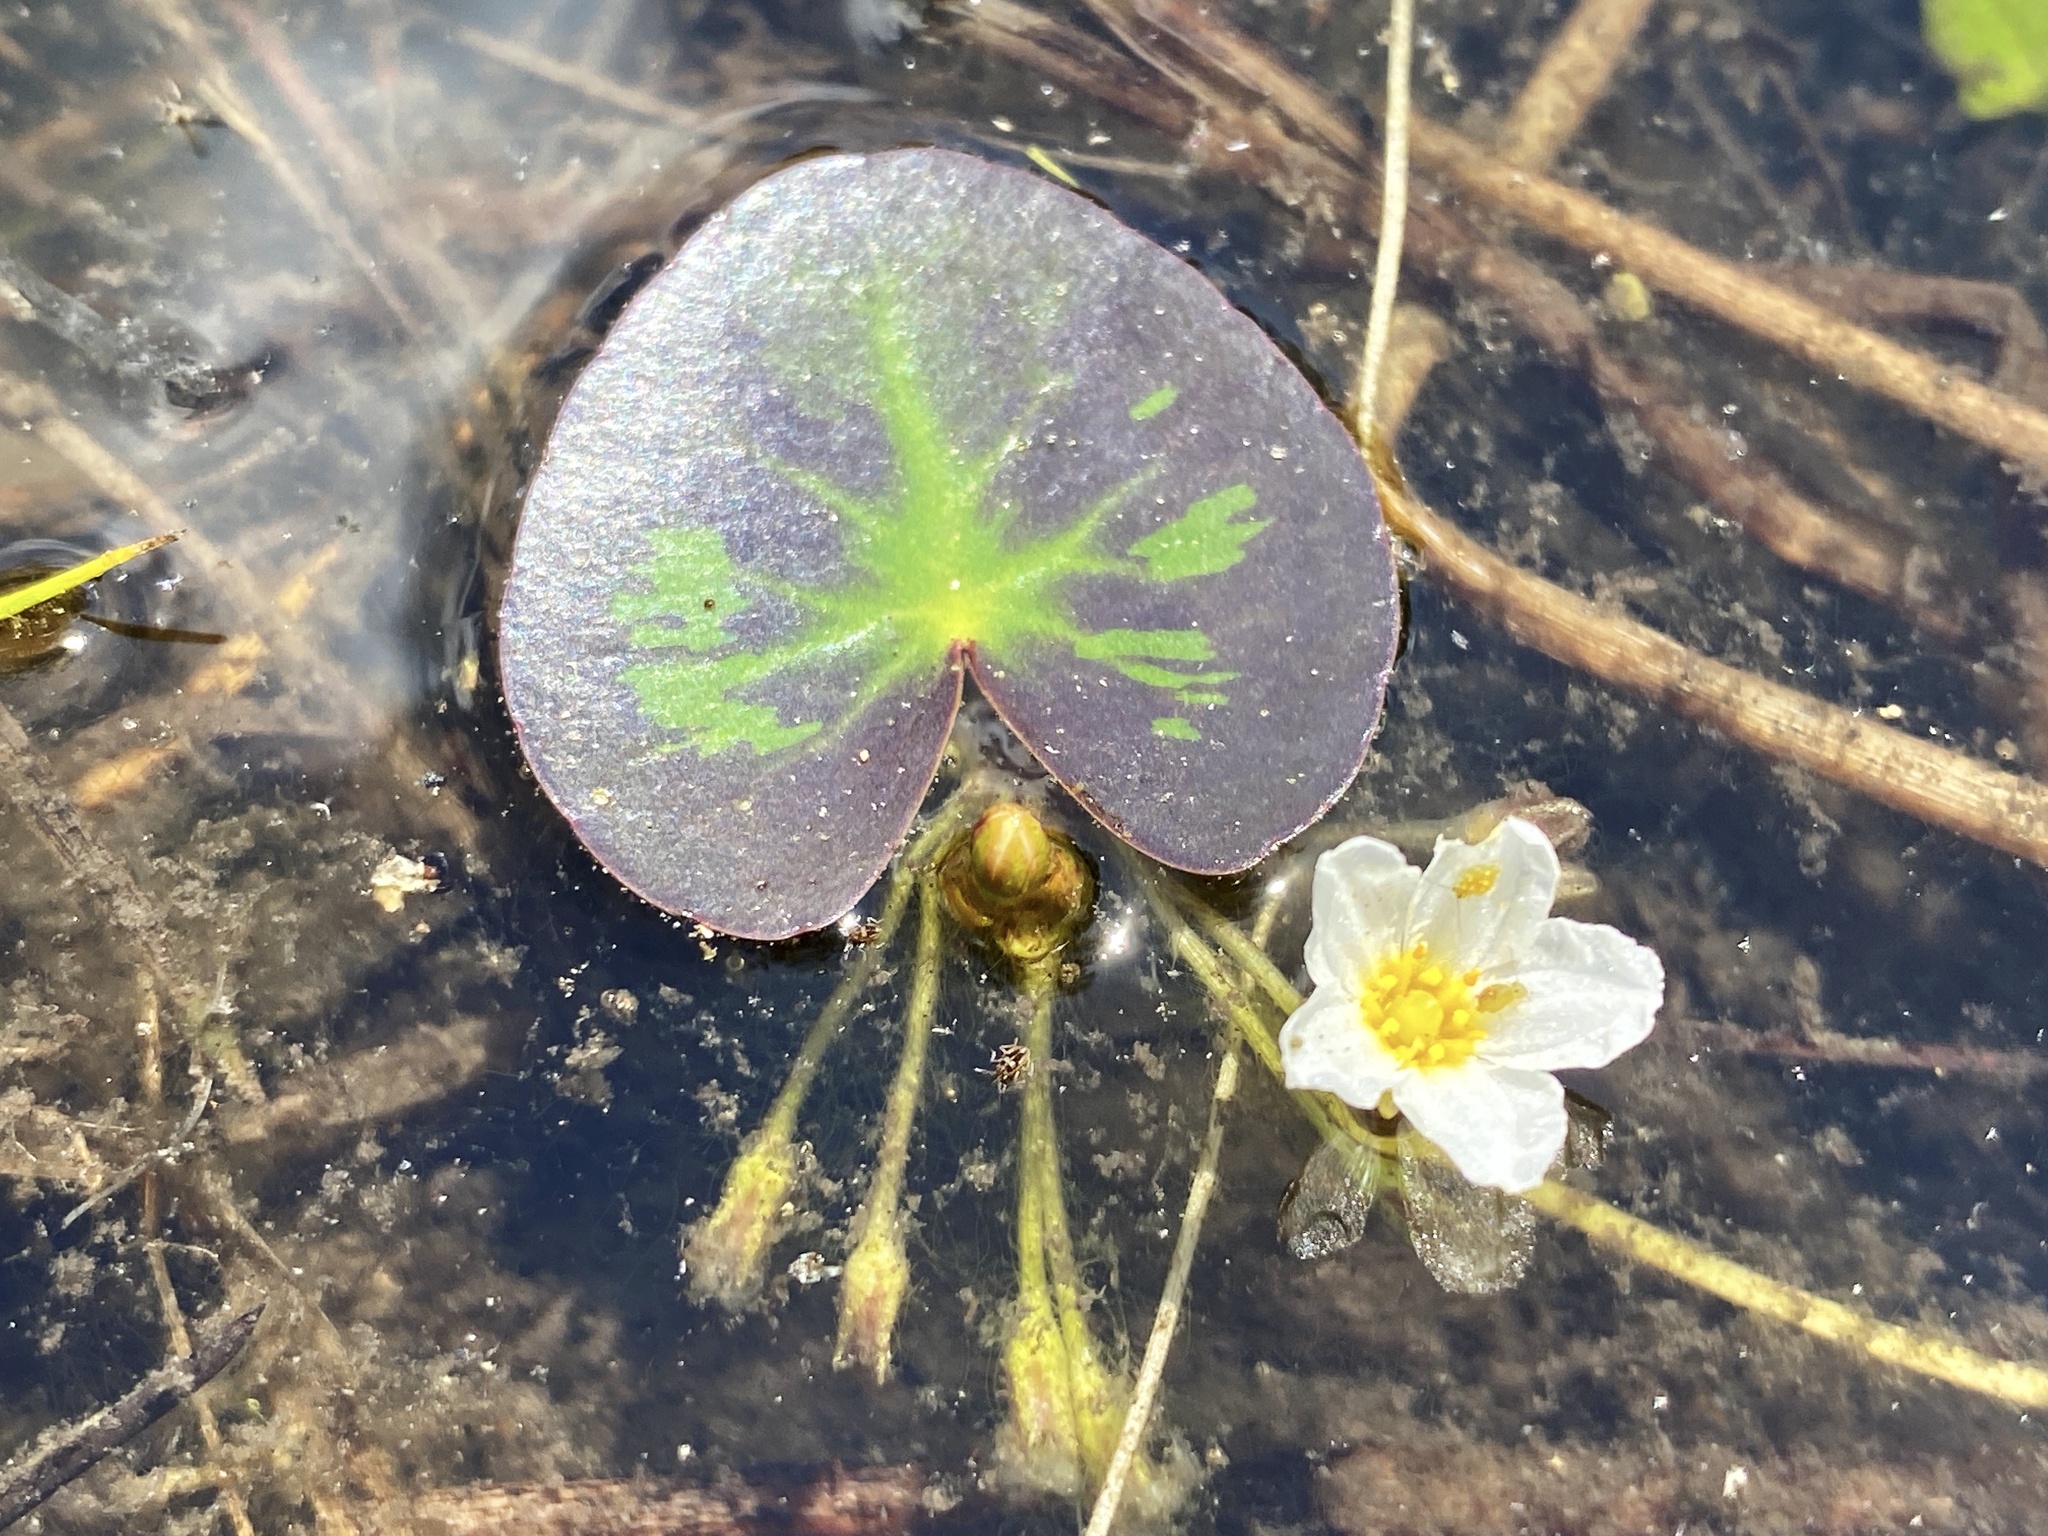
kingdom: Plantae
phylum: Tracheophyta
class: Magnoliopsida
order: Asterales
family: Menyanthaceae
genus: Nymphoides
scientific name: Nymphoides cordata
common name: Eight-angled floatingheart
